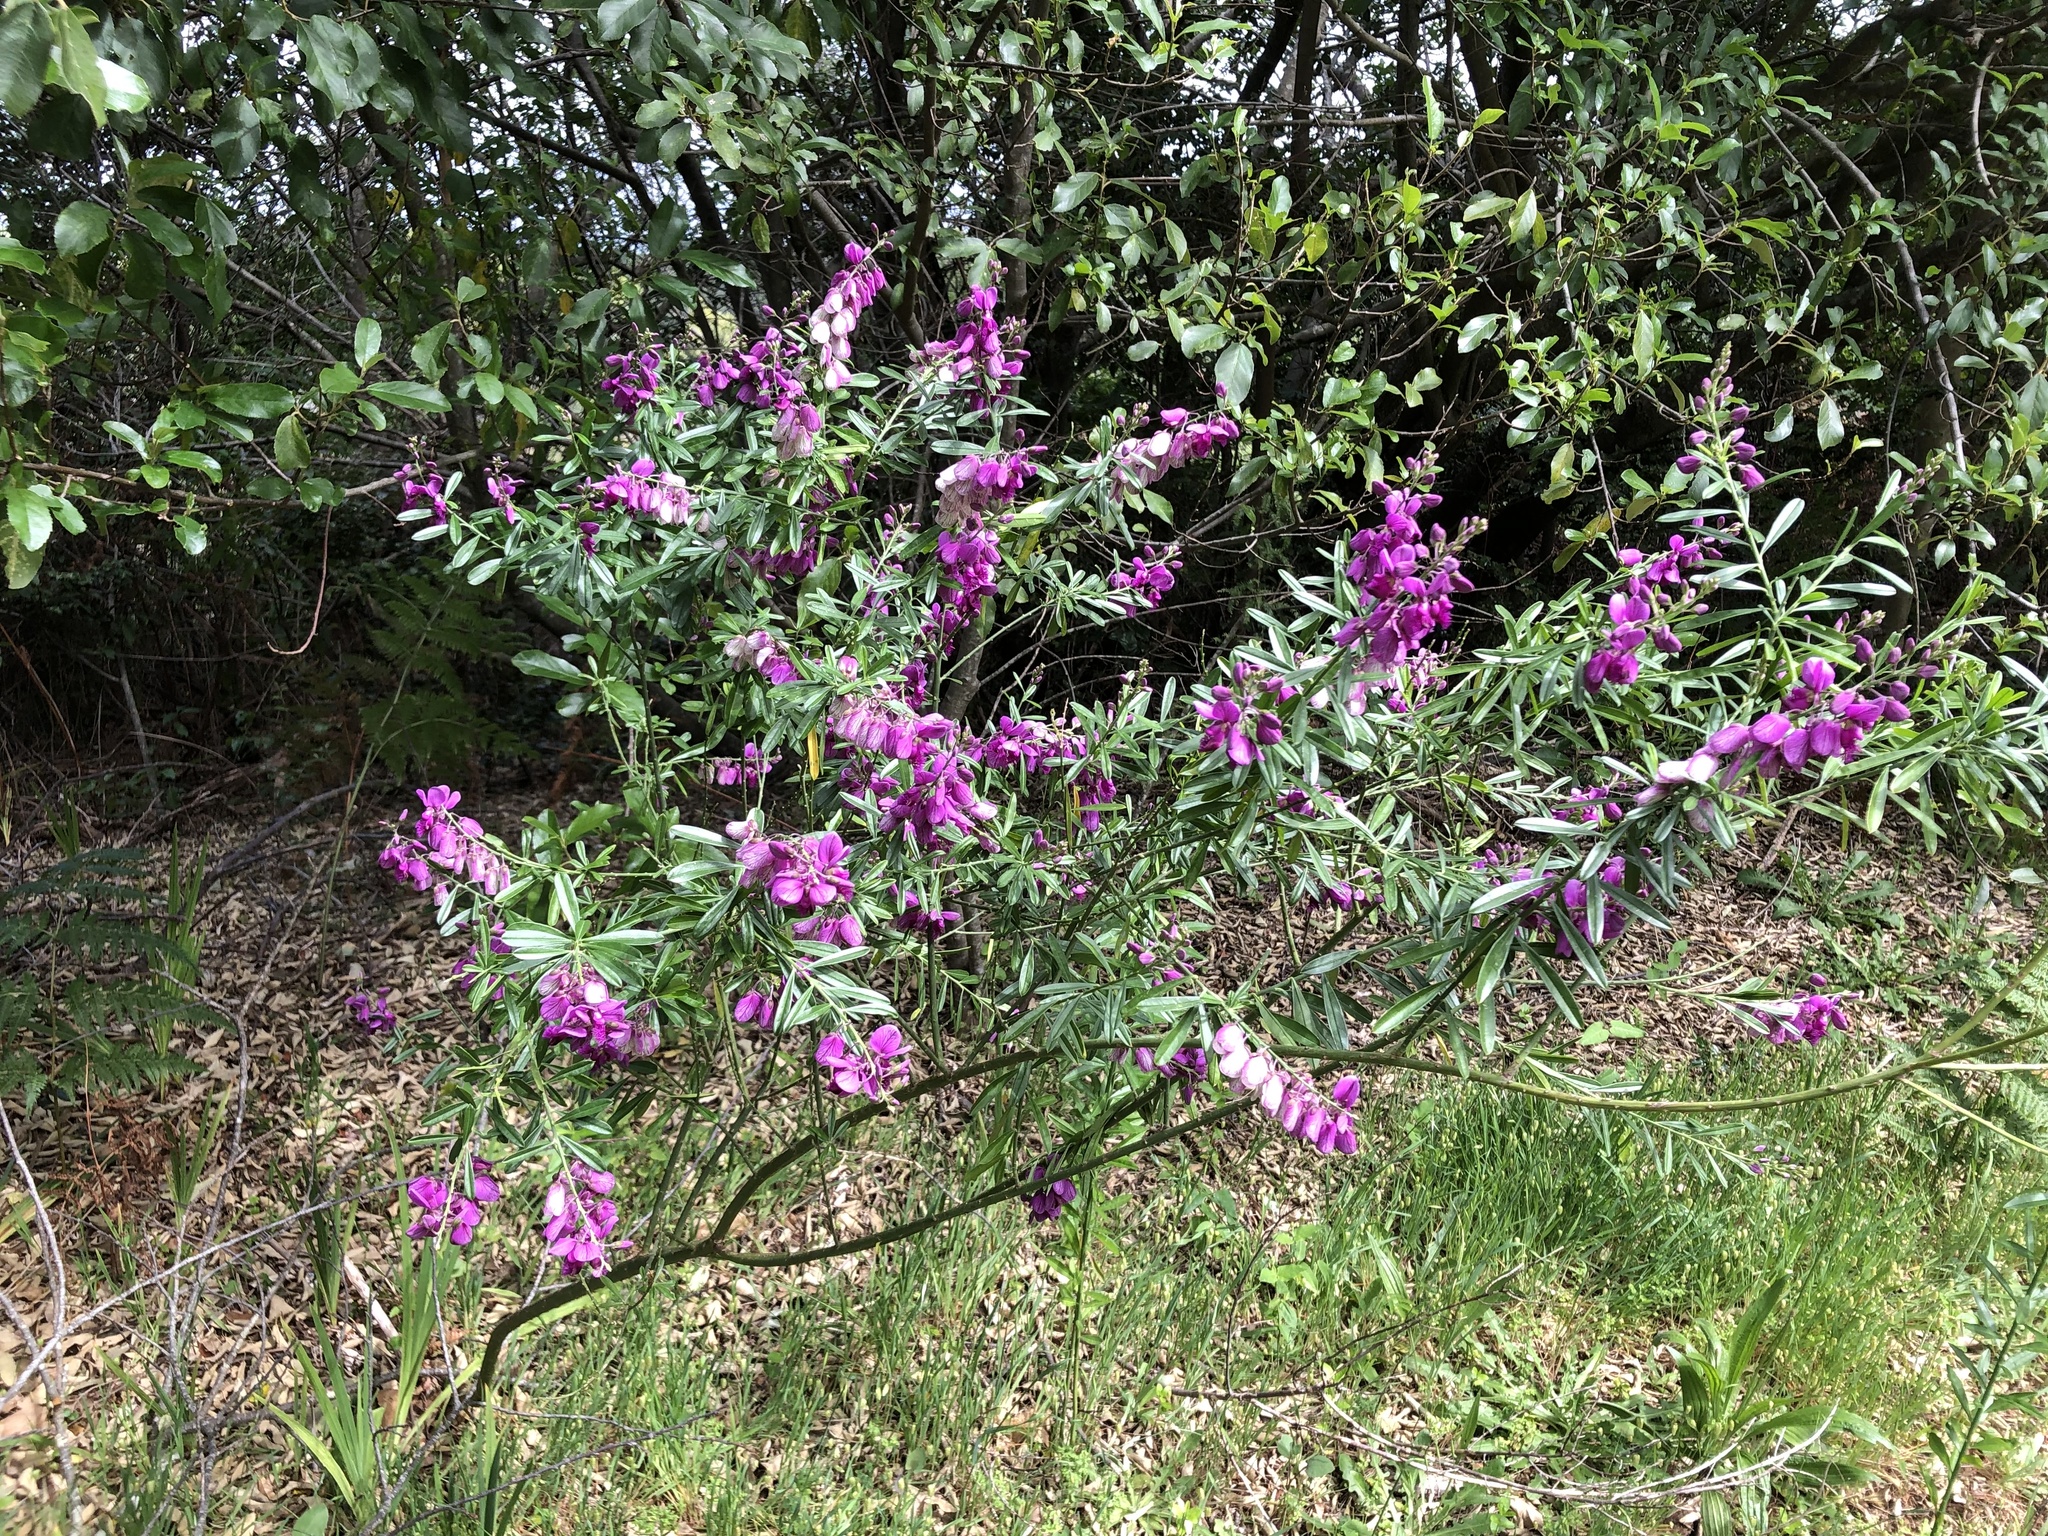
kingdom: Plantae
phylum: Tracheophyta
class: Magnoliopsida
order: Fabales
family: Polygalaceae
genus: Polygala
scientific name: Polygala virgata
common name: Milkwort
